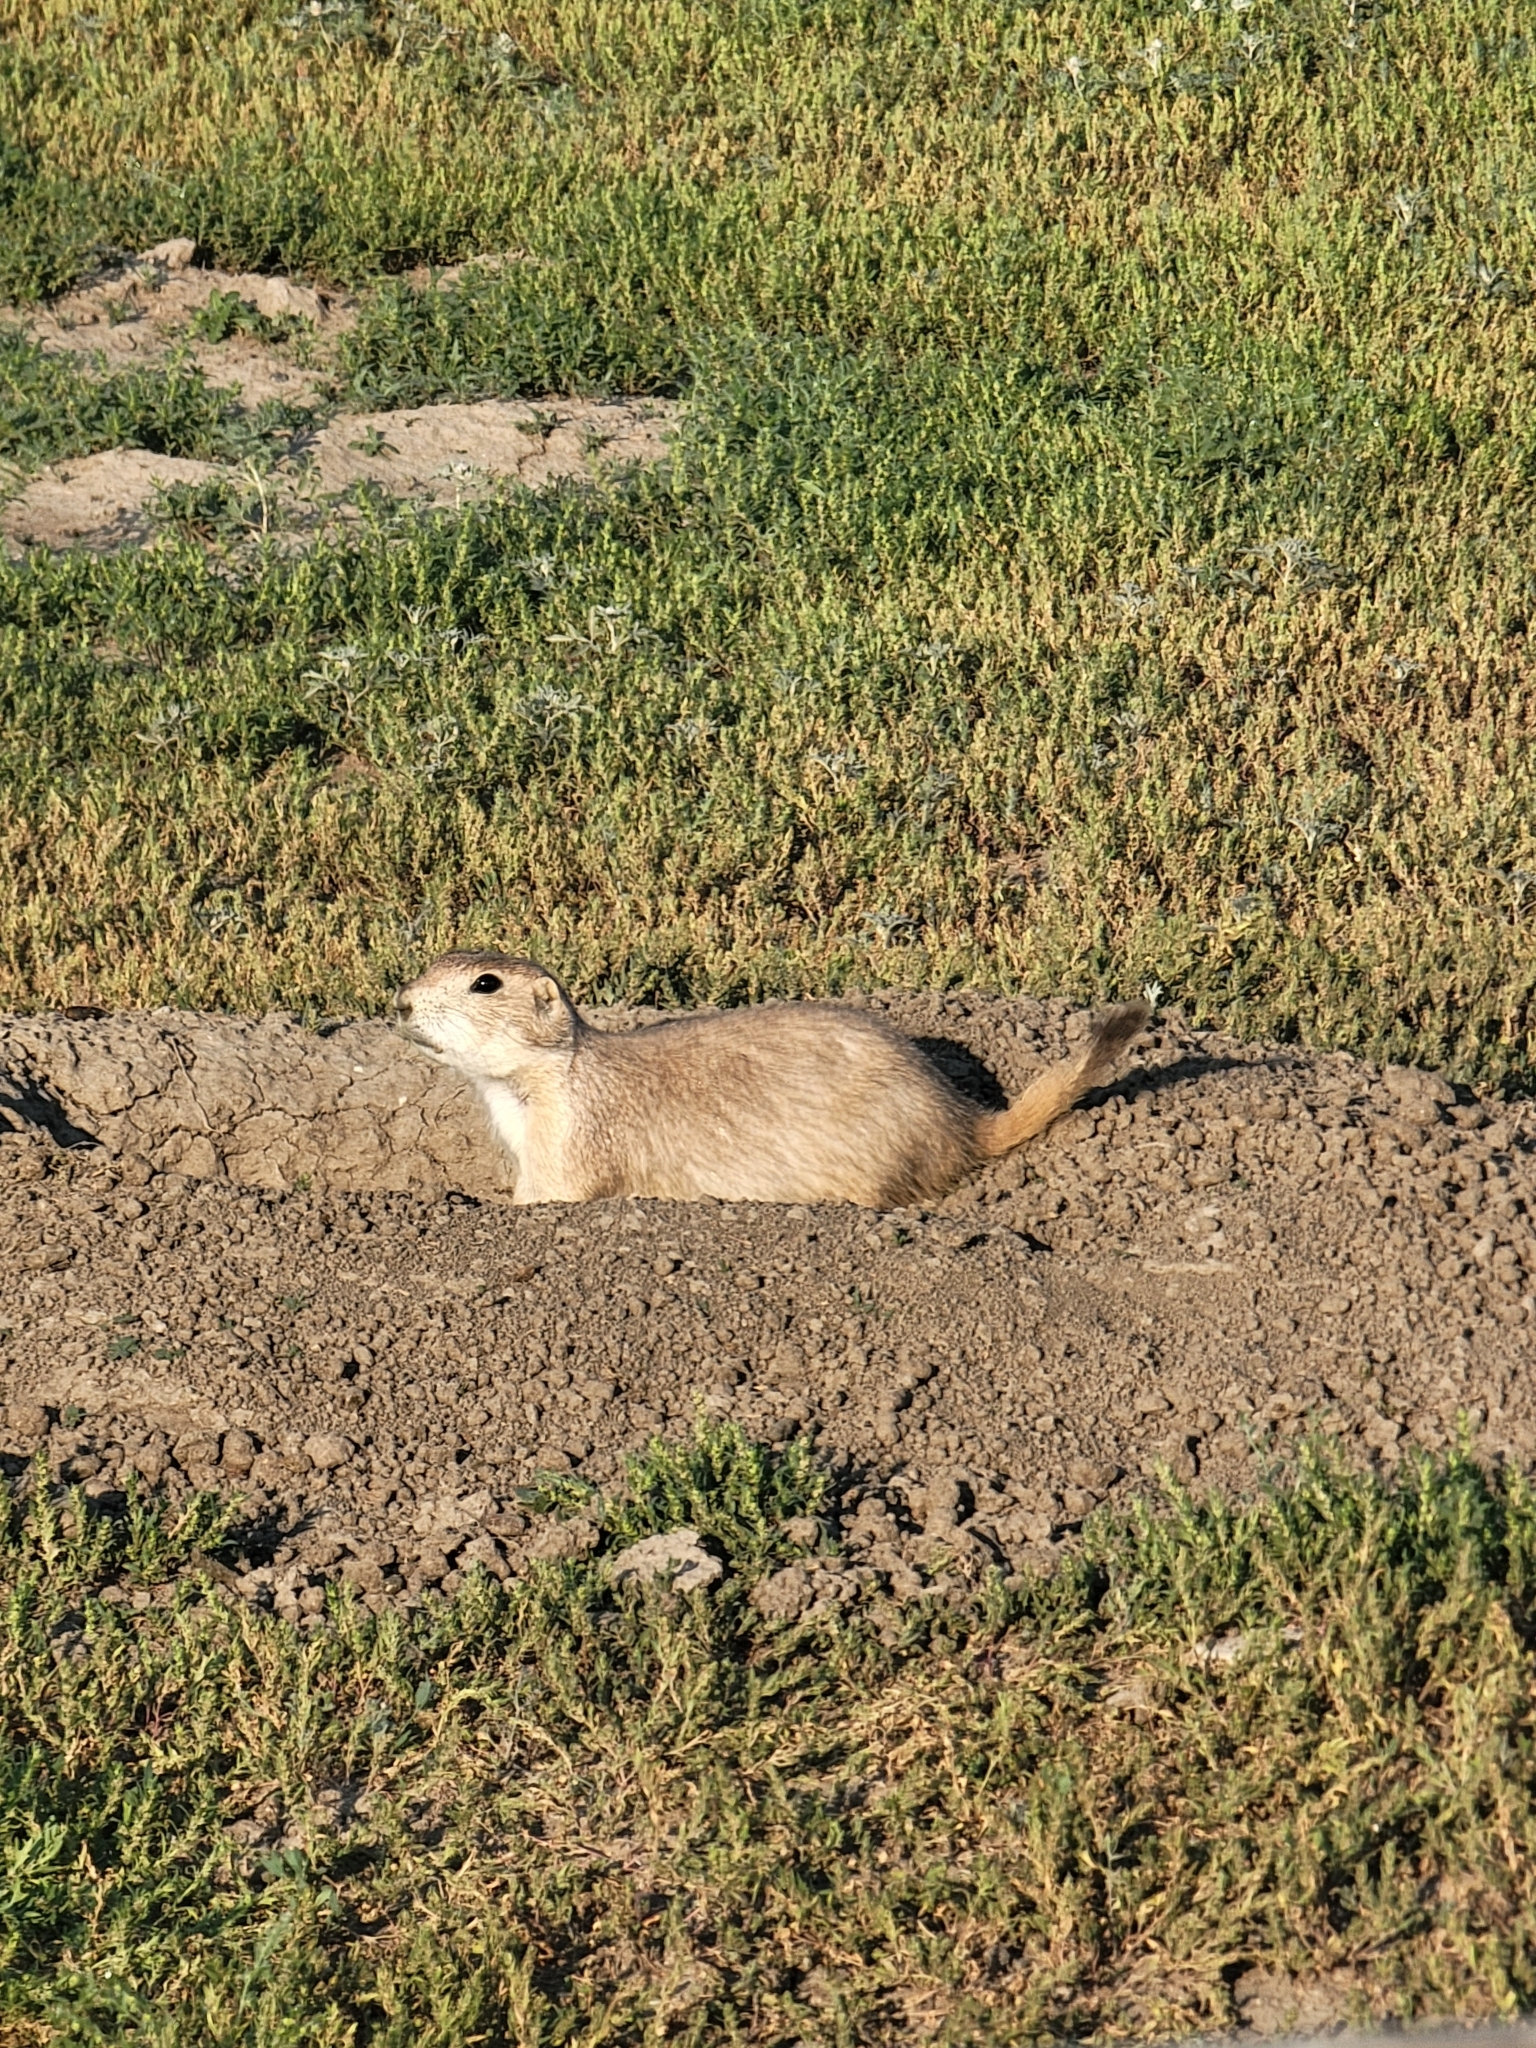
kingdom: Animalia
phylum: Chordata
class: Mammalia
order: Rodentia
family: Sciuridae
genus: Cynomys
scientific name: Cynomys ludovicianus
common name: Black-tailed prairie dog
